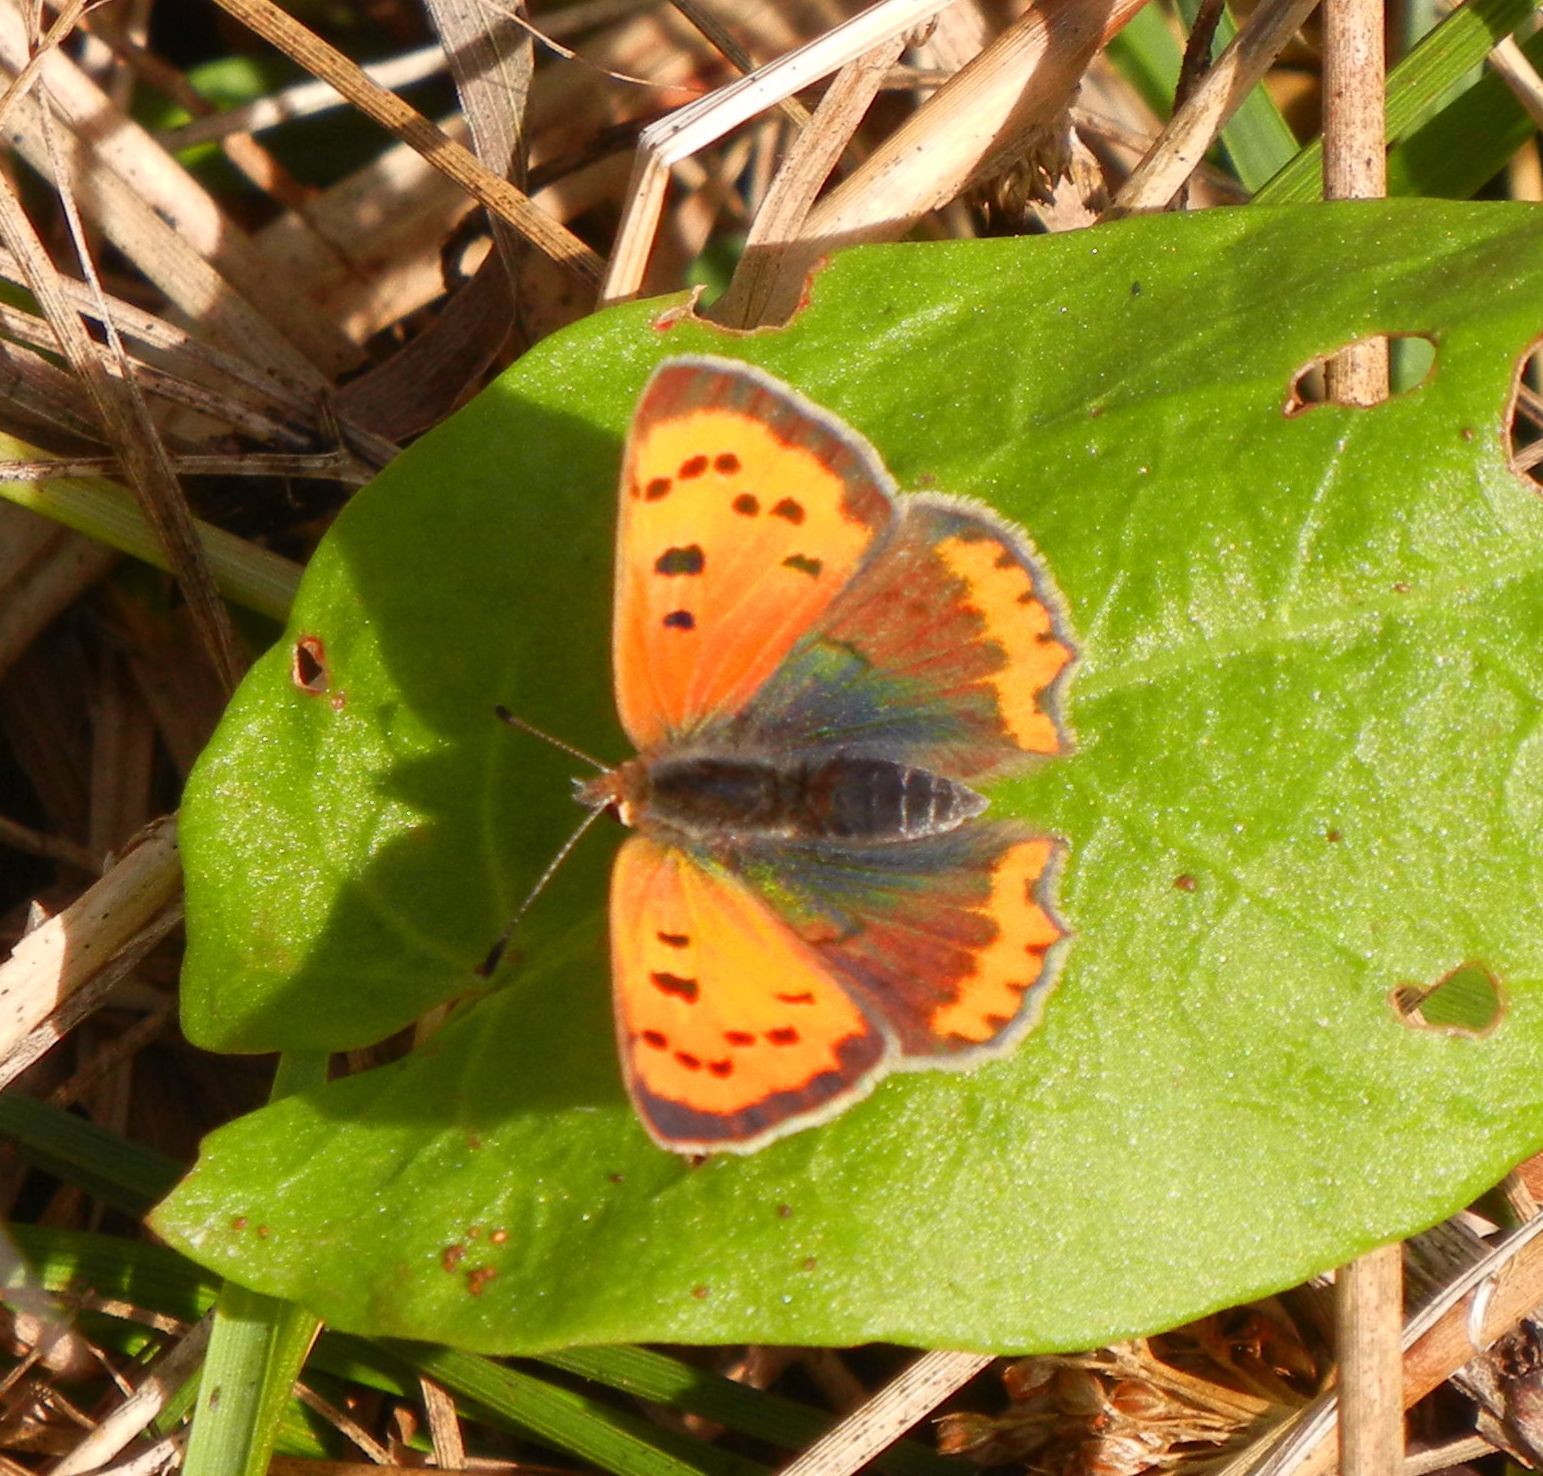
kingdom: Animalia
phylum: Arthropoda
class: Insecta
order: Lepidoptera
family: Lycaenidae
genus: Lycaena
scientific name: Lycaena phlaeas
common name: Small copper
